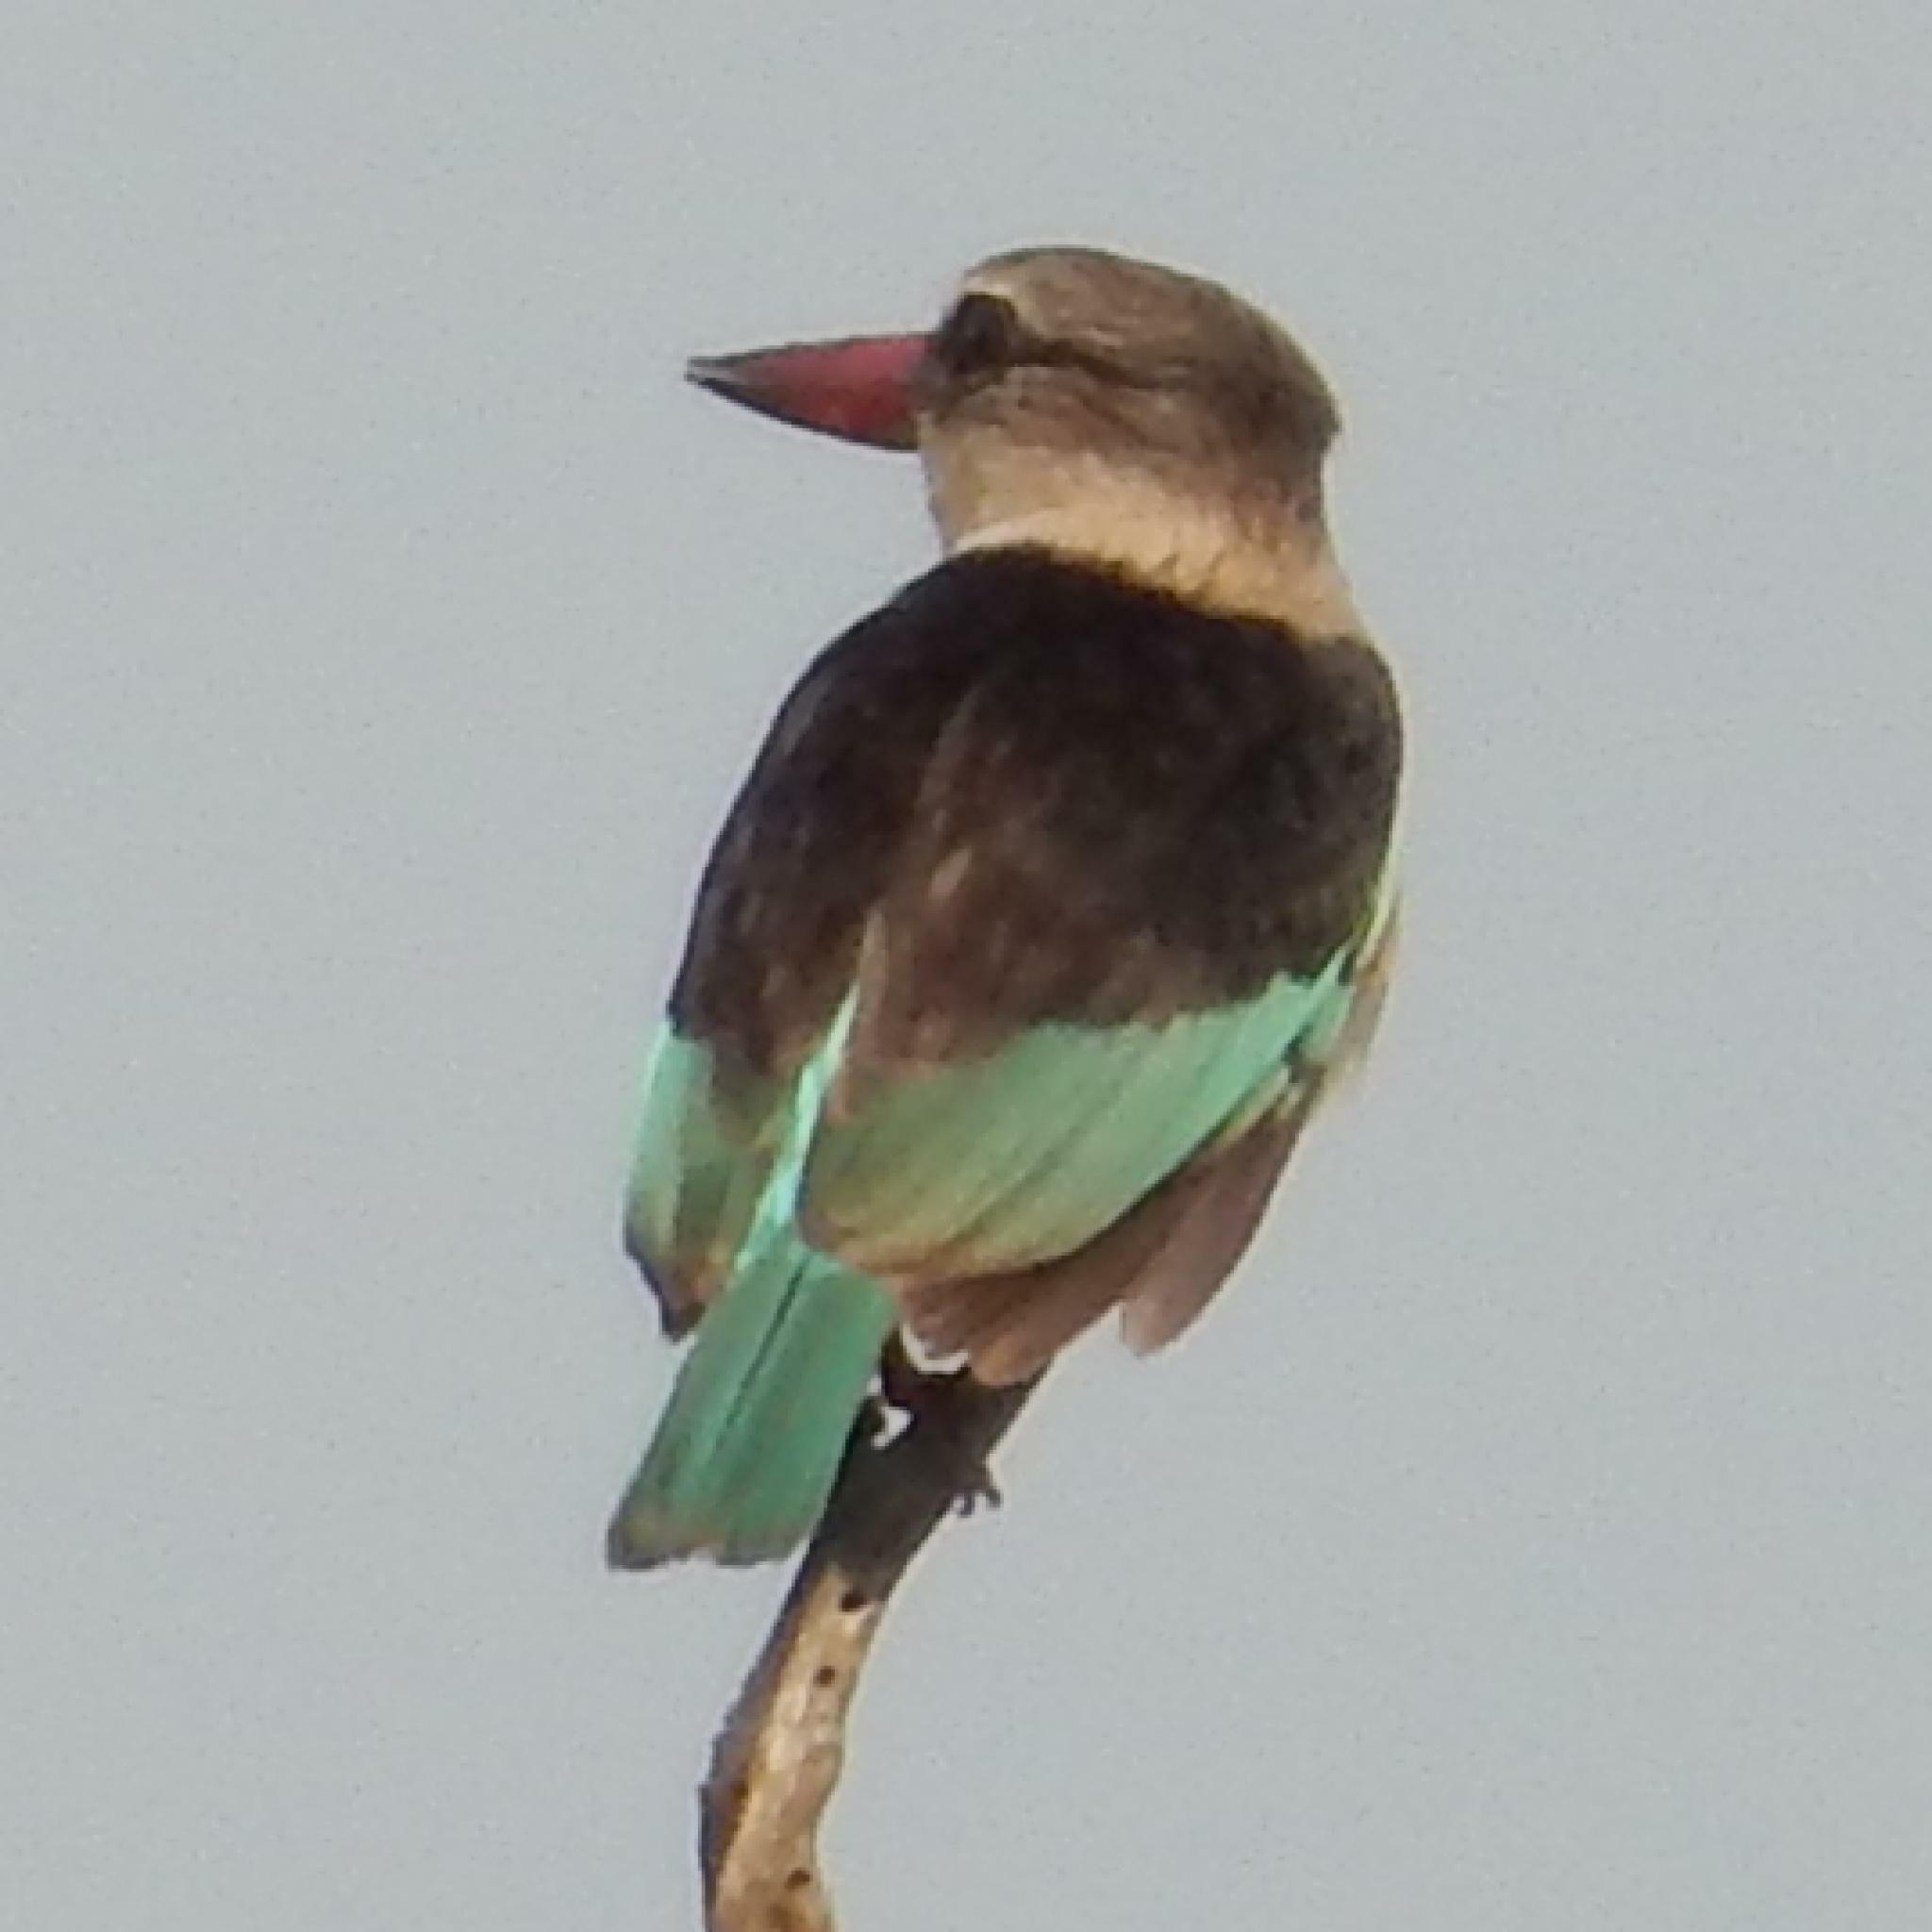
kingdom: Animalia
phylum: Chordata
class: Aves
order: Coraciiformes
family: Alcedinidae
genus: Halcyon
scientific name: Halcyon albiventris
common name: Brown-hooded kingfisher
